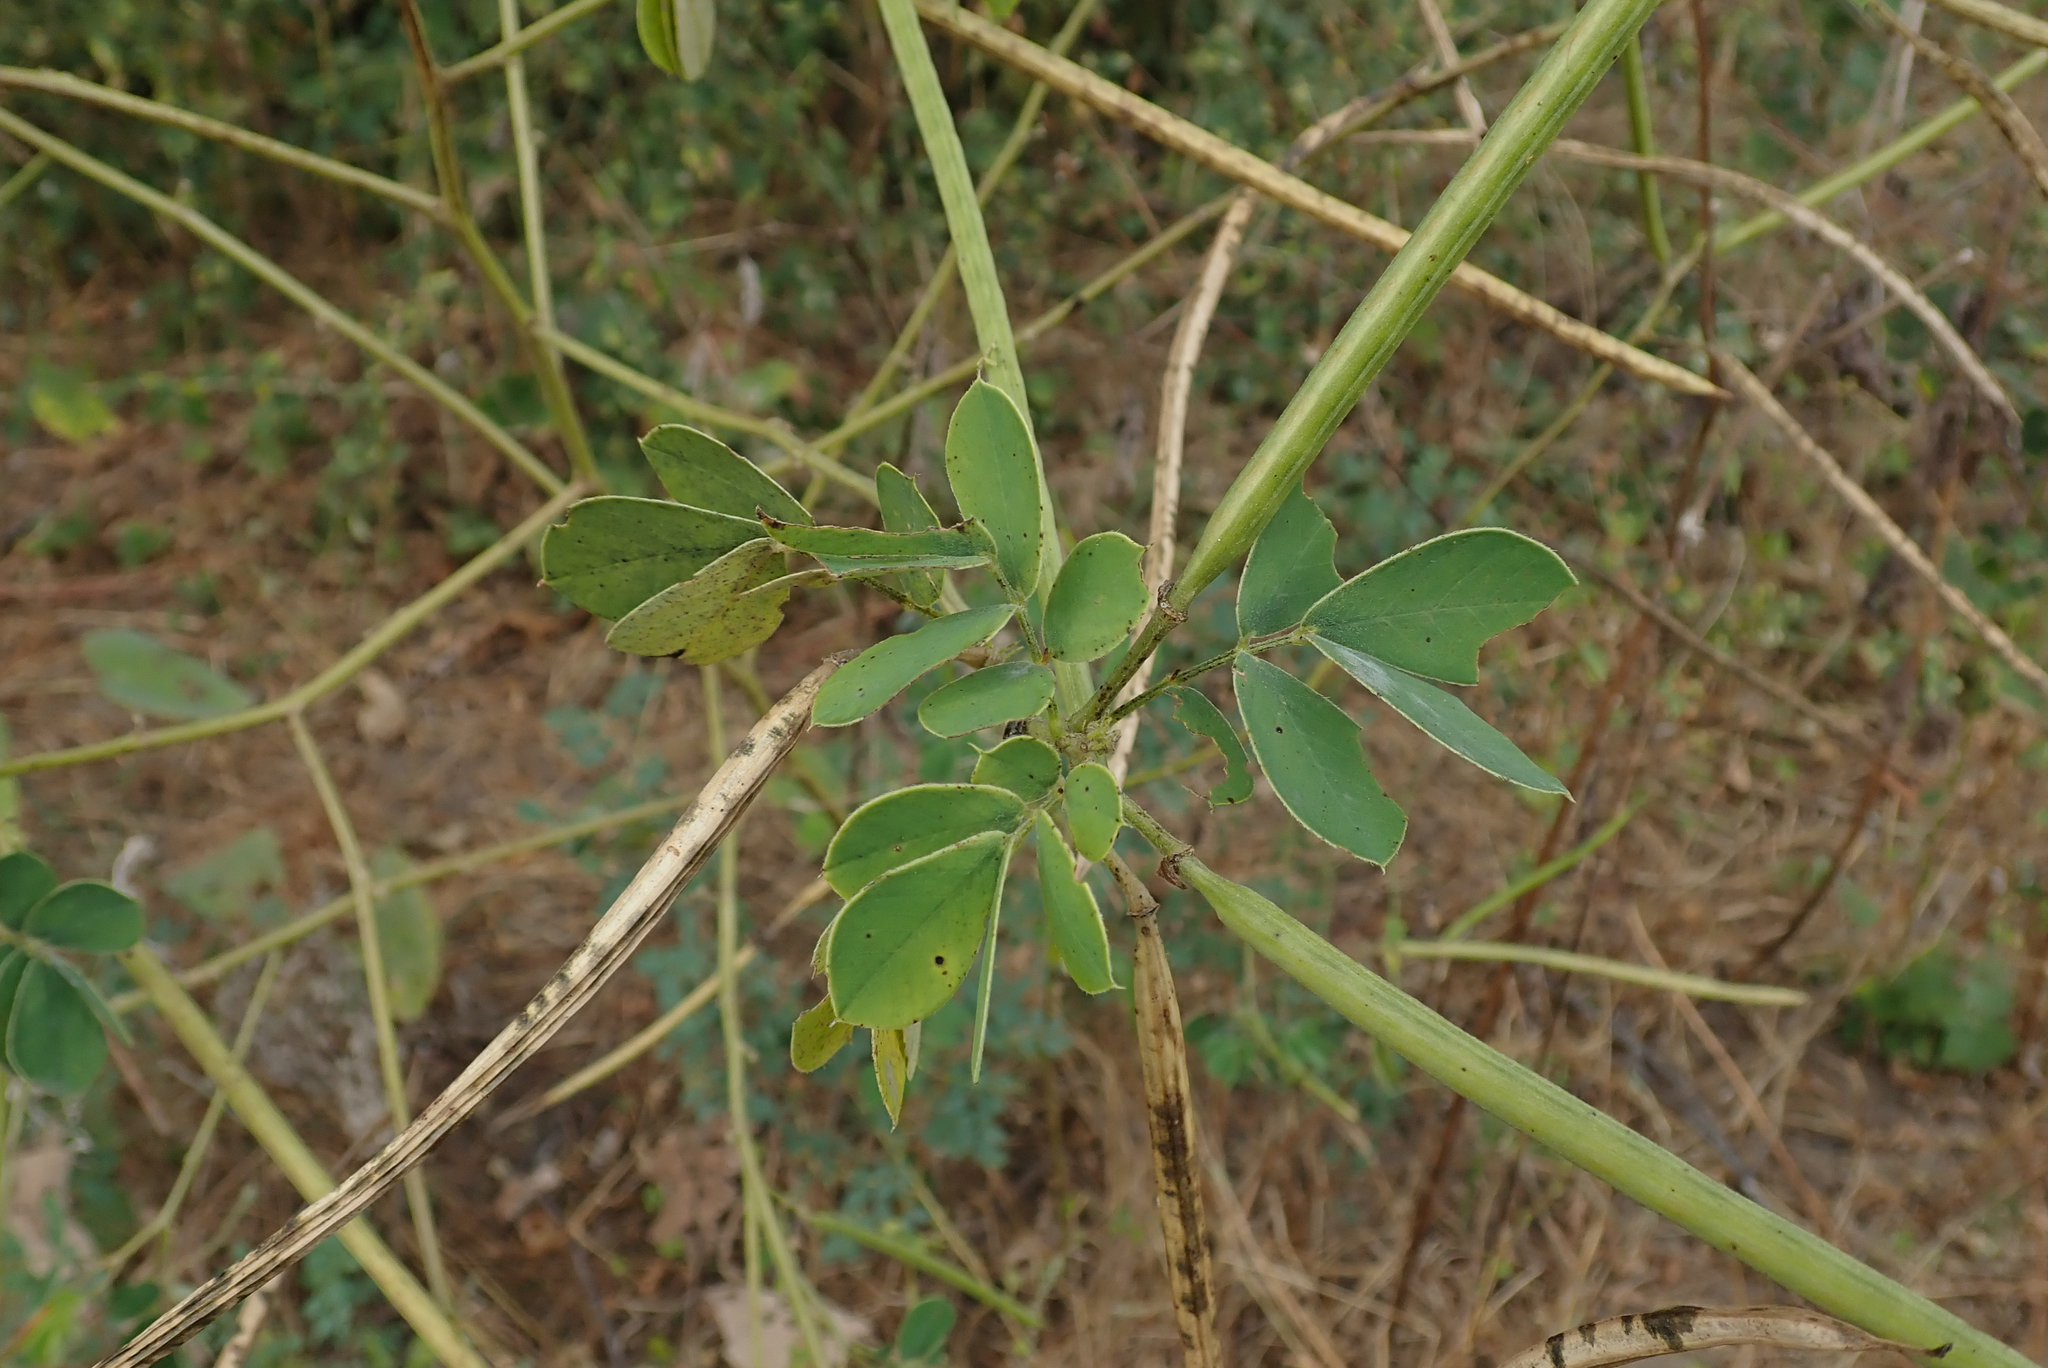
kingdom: Plantae
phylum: Tracheophyta
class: Magnoliopsida
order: Fabales
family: Fabaceae
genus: Senna
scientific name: Senna occidentalis
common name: Septicweed
